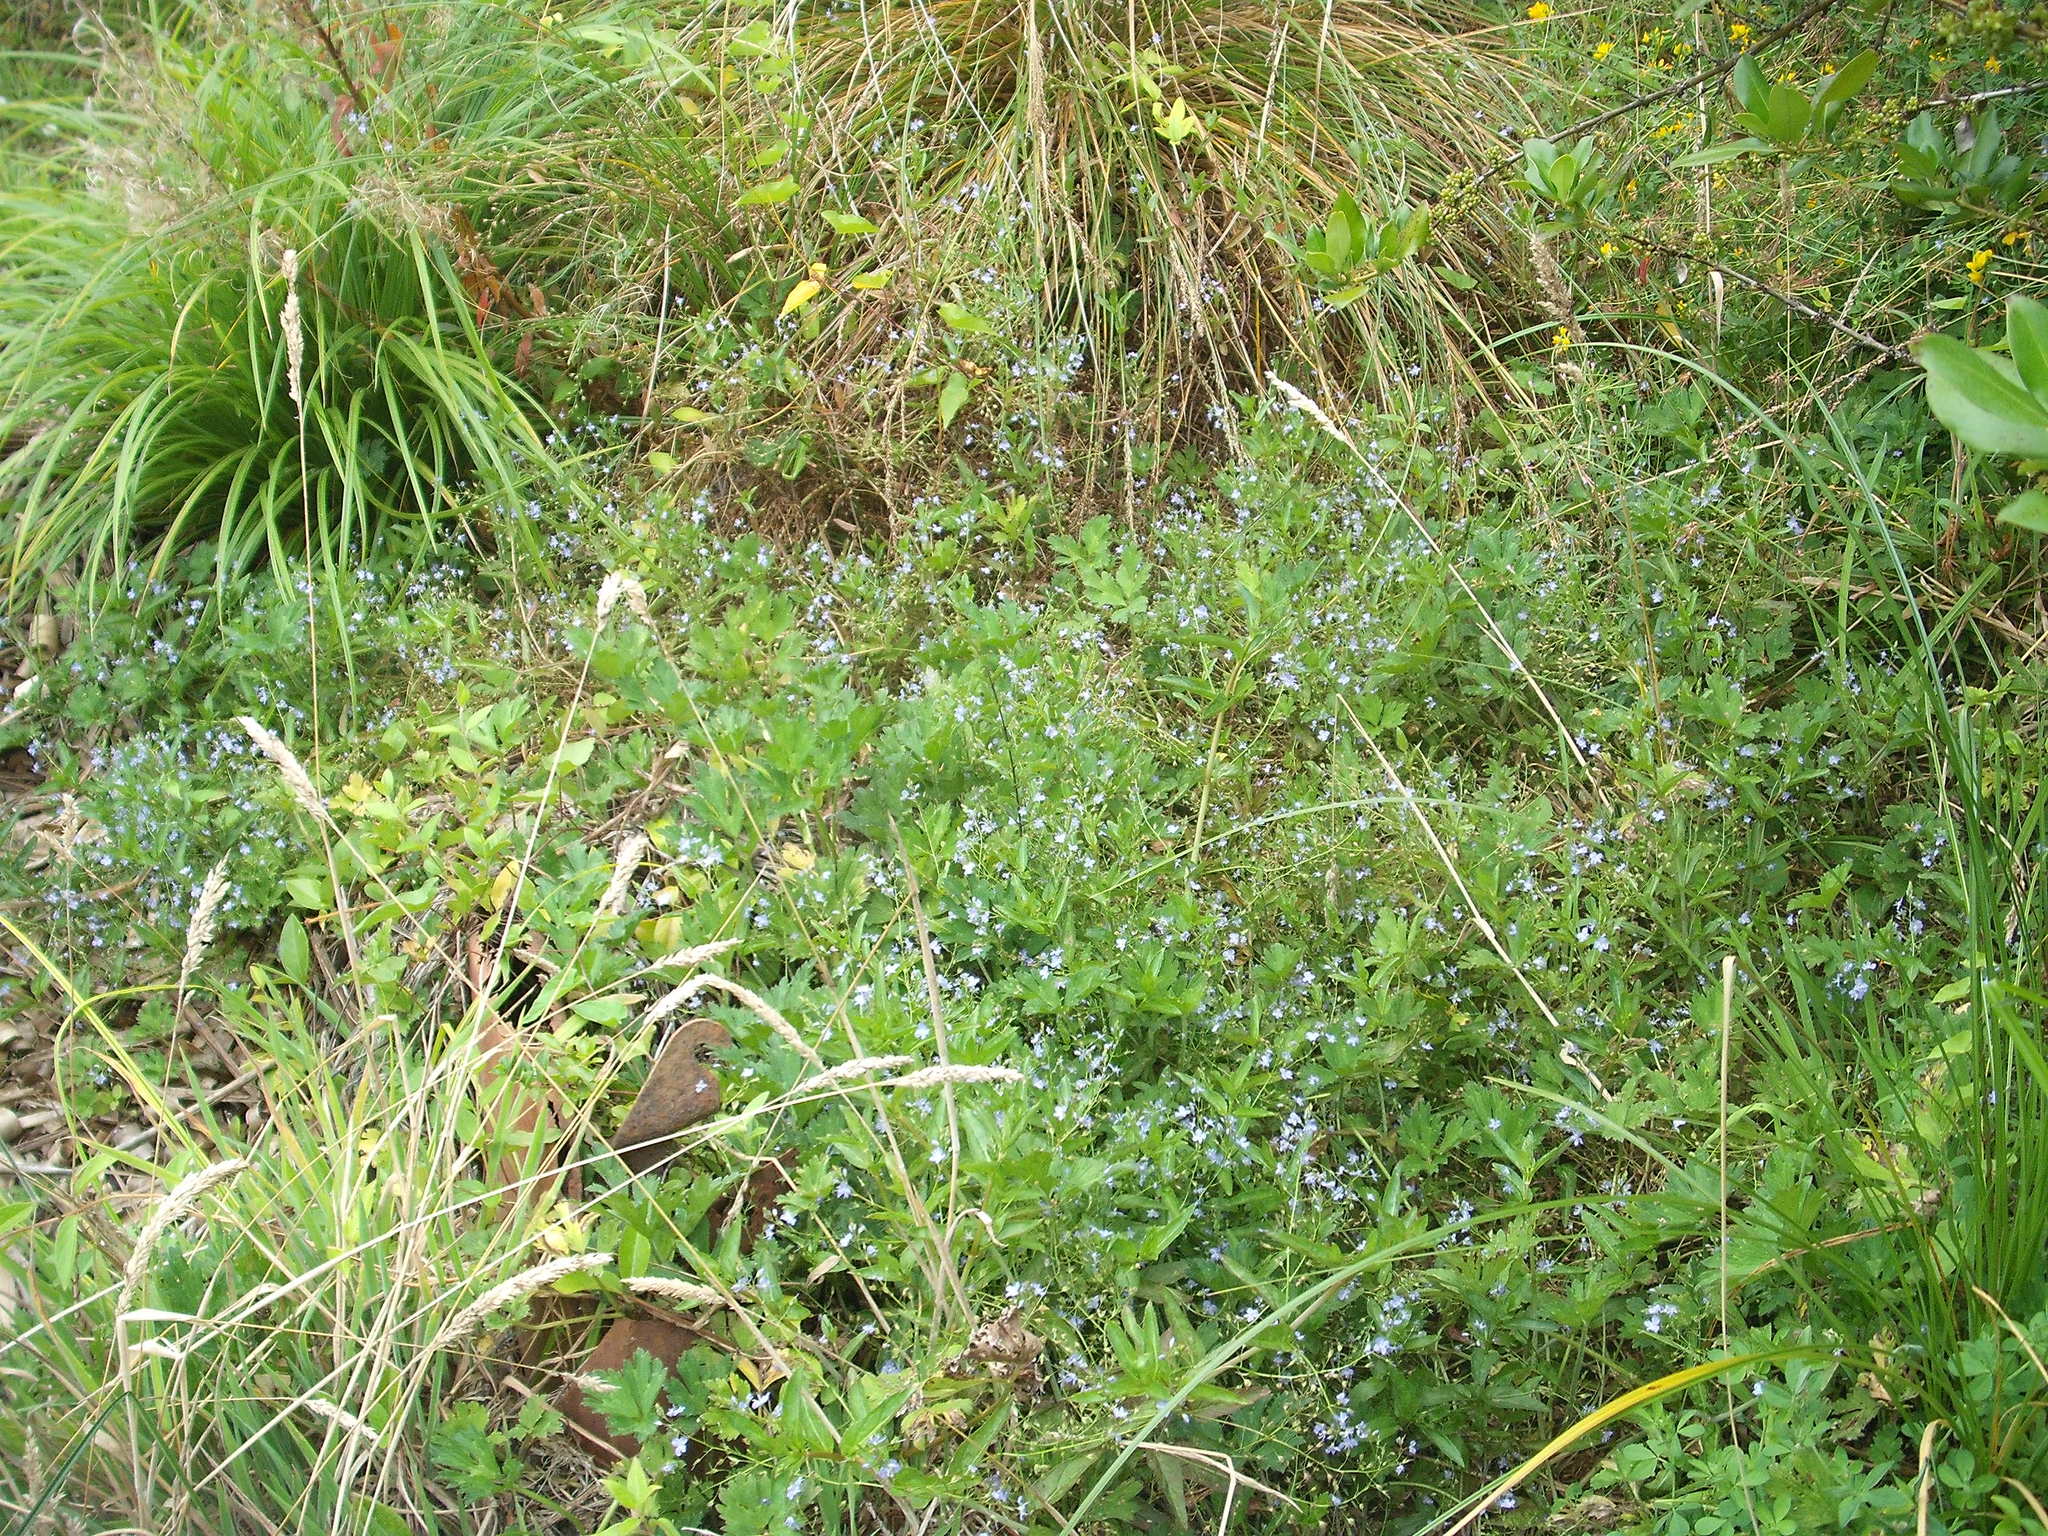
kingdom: Plantae
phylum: Tracheophyta
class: Magnoliopsida
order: Lamiales
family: Plantaginaceae
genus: Veronica
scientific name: Veronica americana
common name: American brooklime
